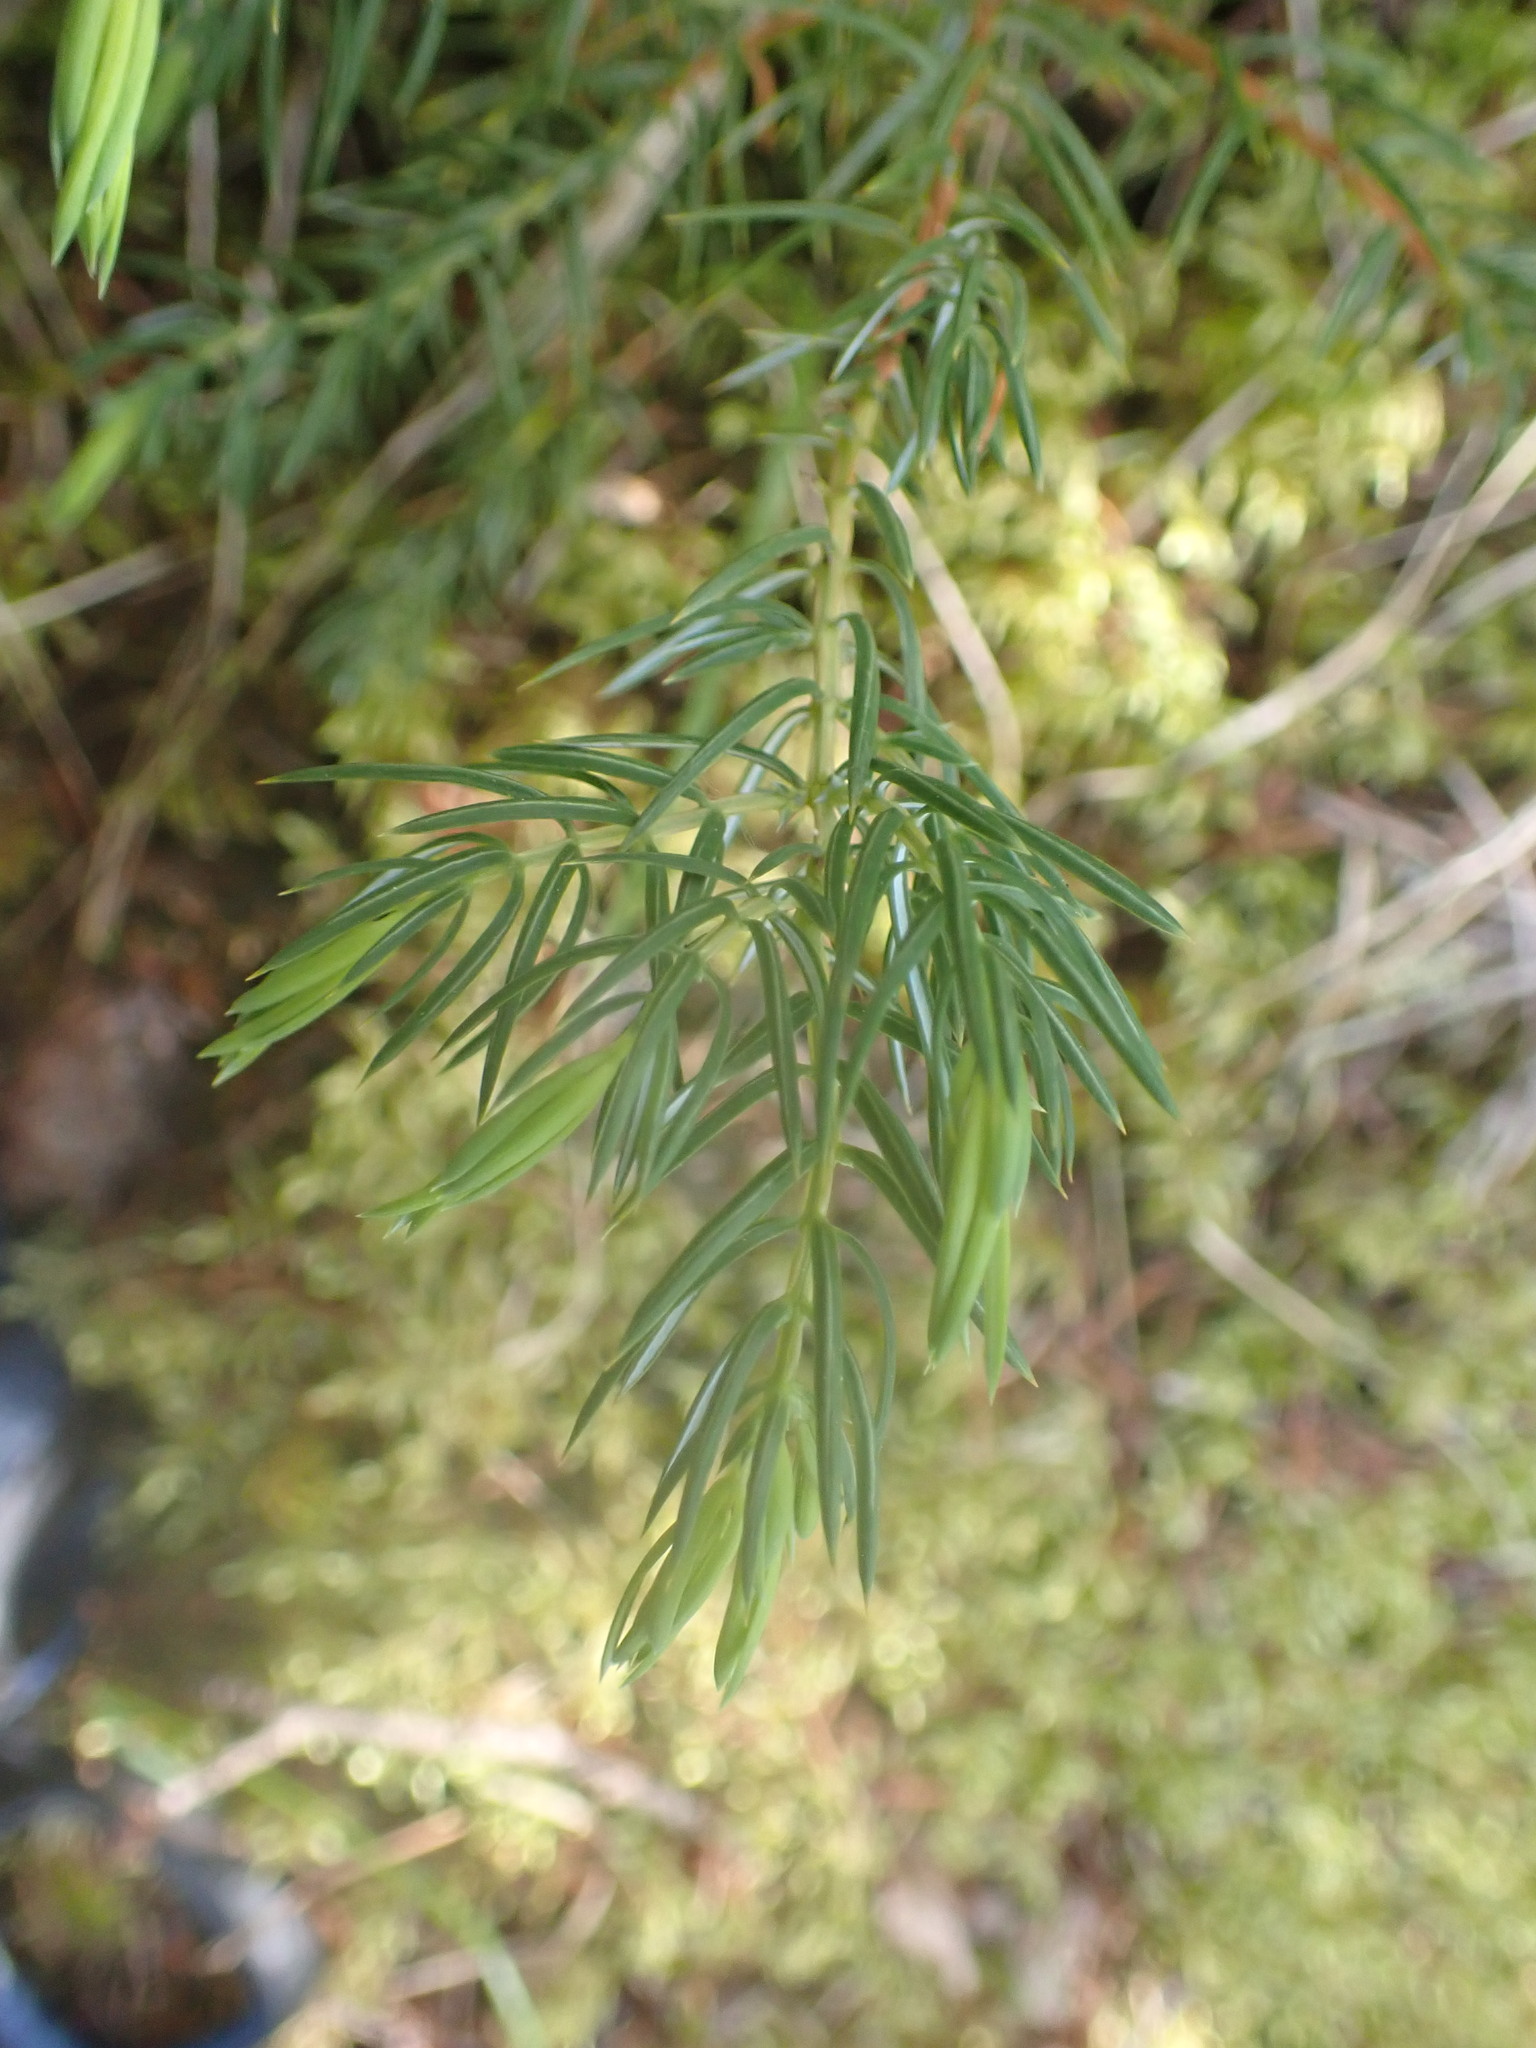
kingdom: Plantae
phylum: Tracheophyta
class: Pinopsida
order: Pinales
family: Cupressaceae
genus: Juniperus
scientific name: Juniperus communis
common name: Common juniper
